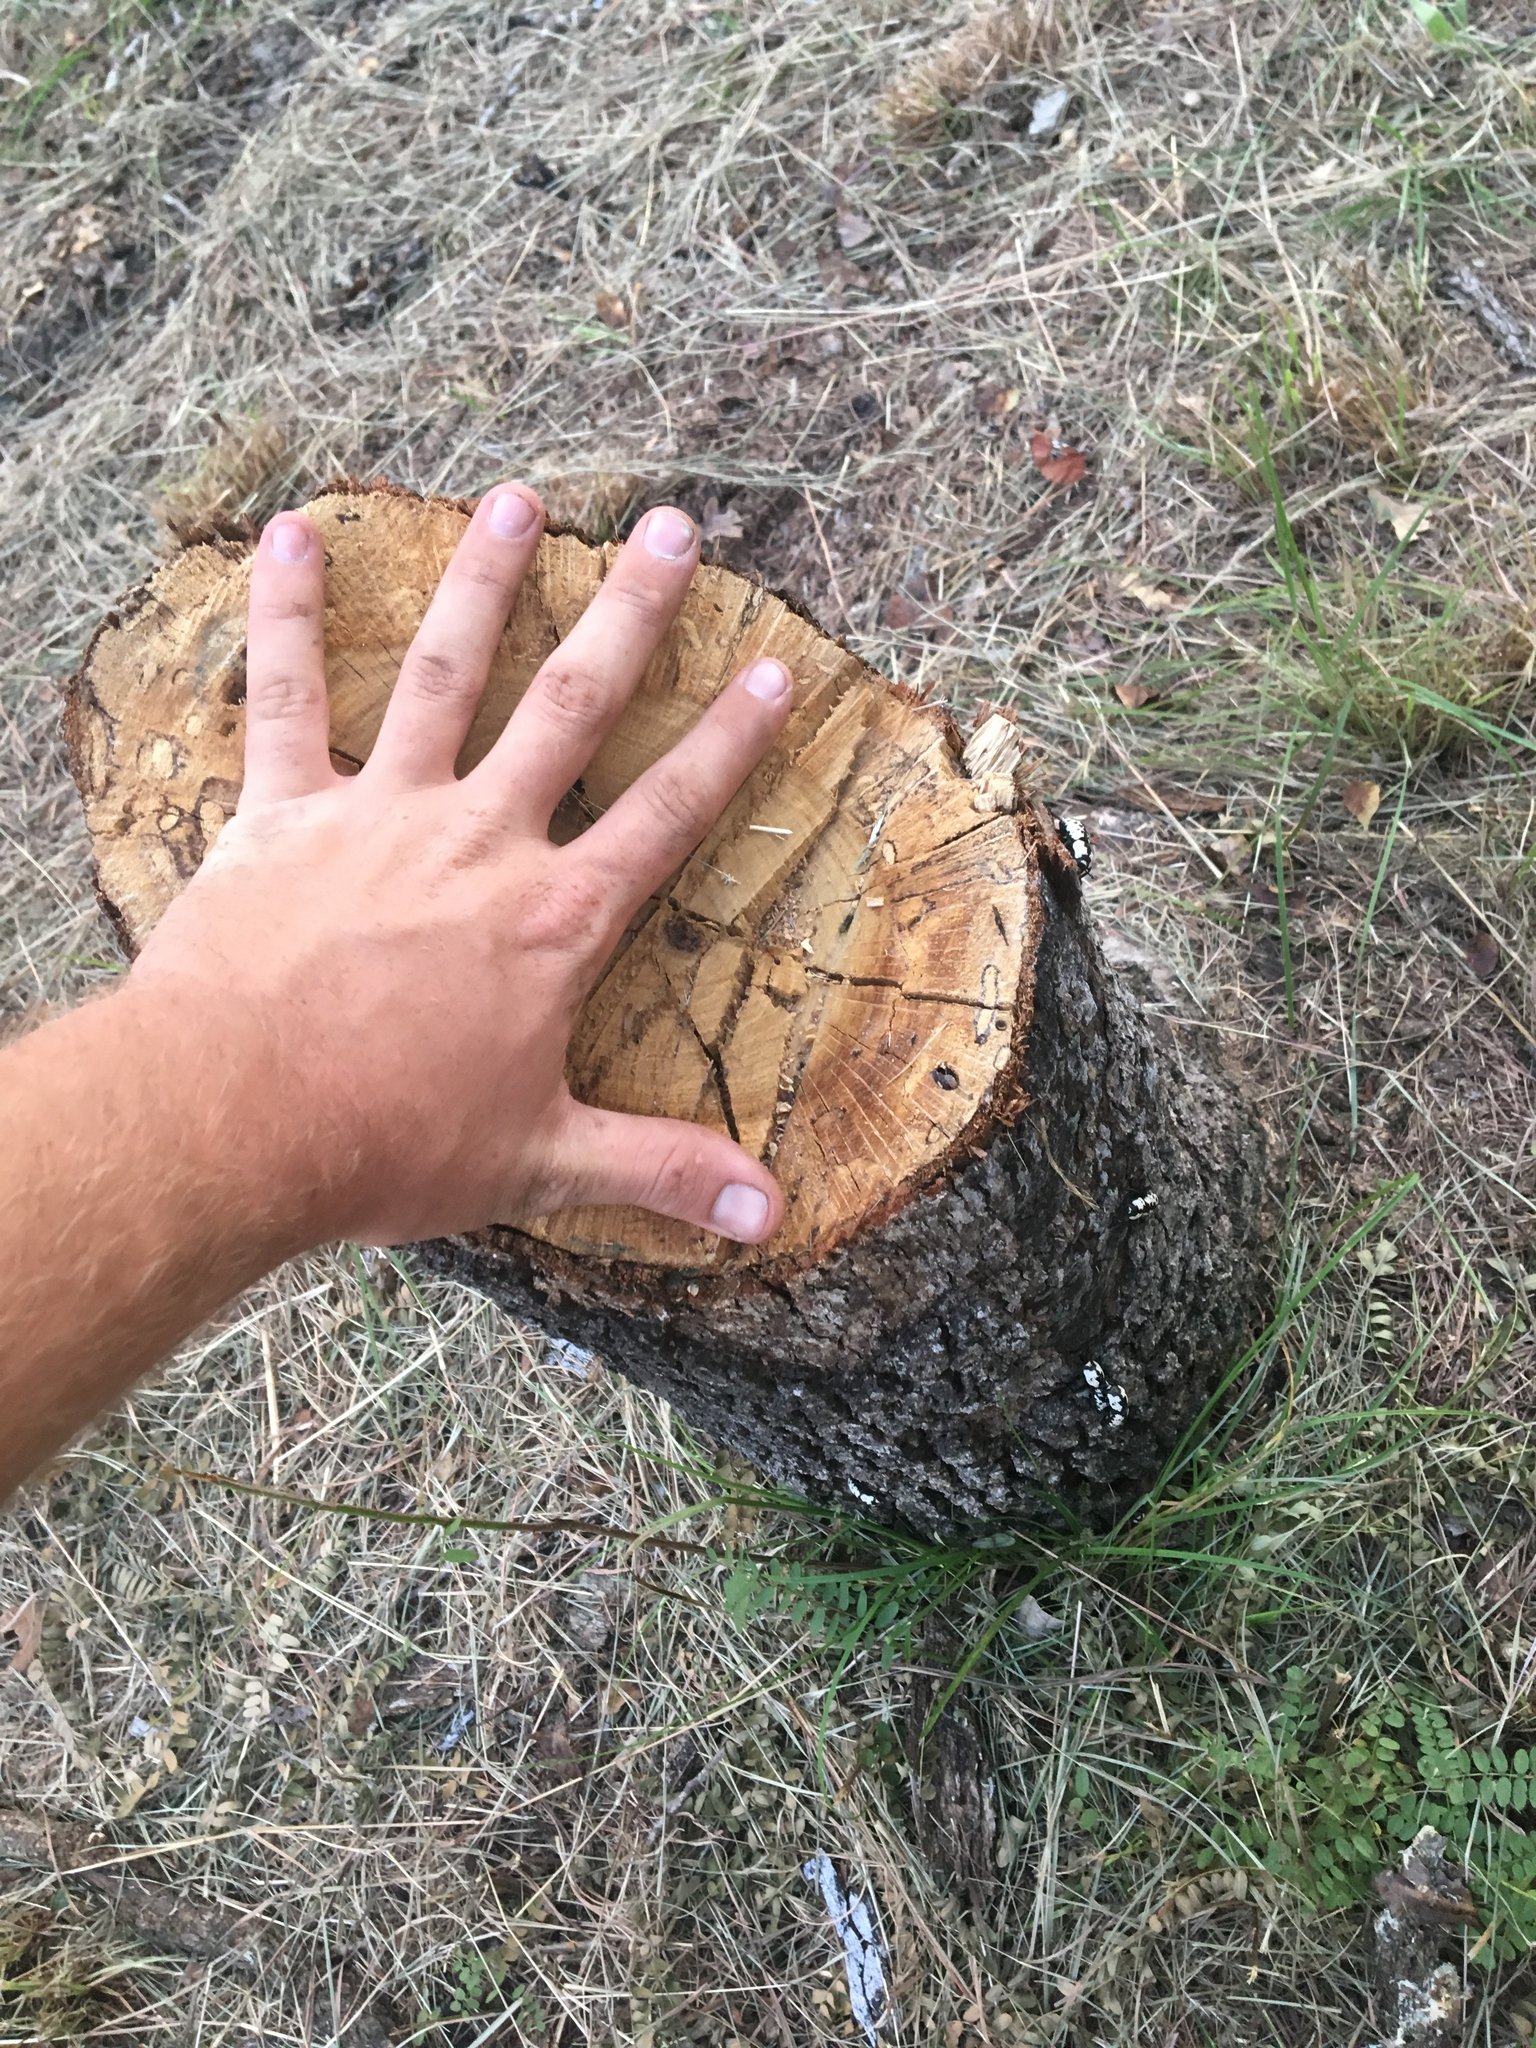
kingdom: Animalia
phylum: Arthropoda
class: Insecta
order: Coleoptera
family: Zopheridae
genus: Zopherus
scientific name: Zopherus nodulosus
